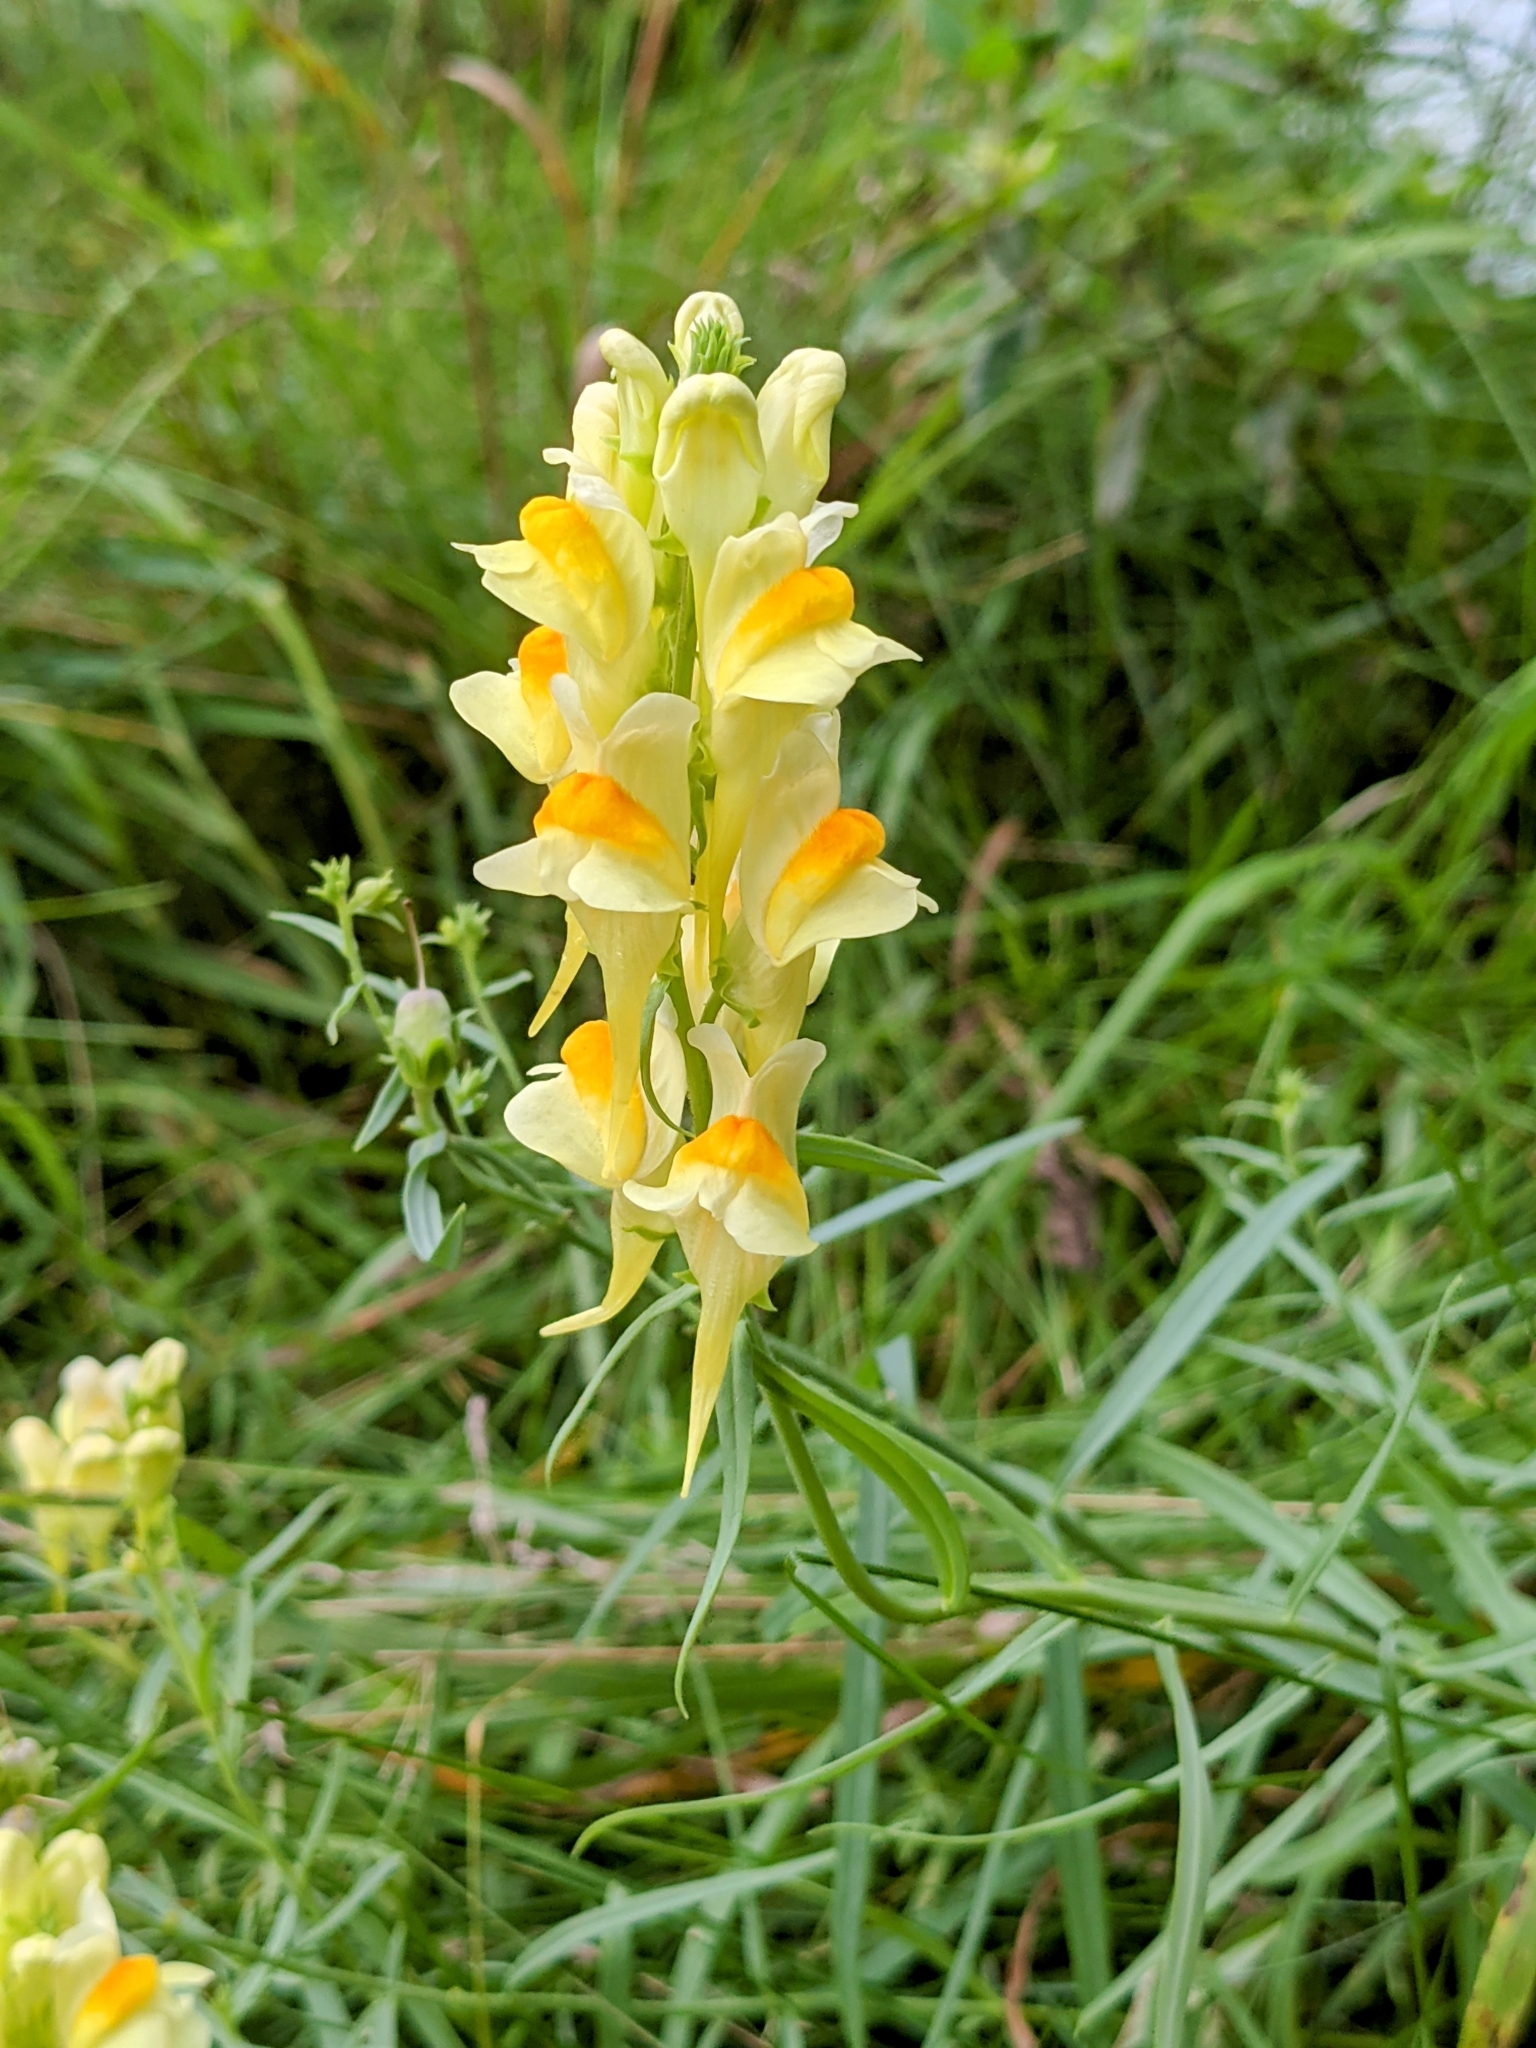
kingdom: Plantae
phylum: Tracheophyta
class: Magnoliopsida
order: Lamiales
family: Plantaginaceae
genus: Linaria
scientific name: Linaria vulgaris
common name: Butter and eggs
